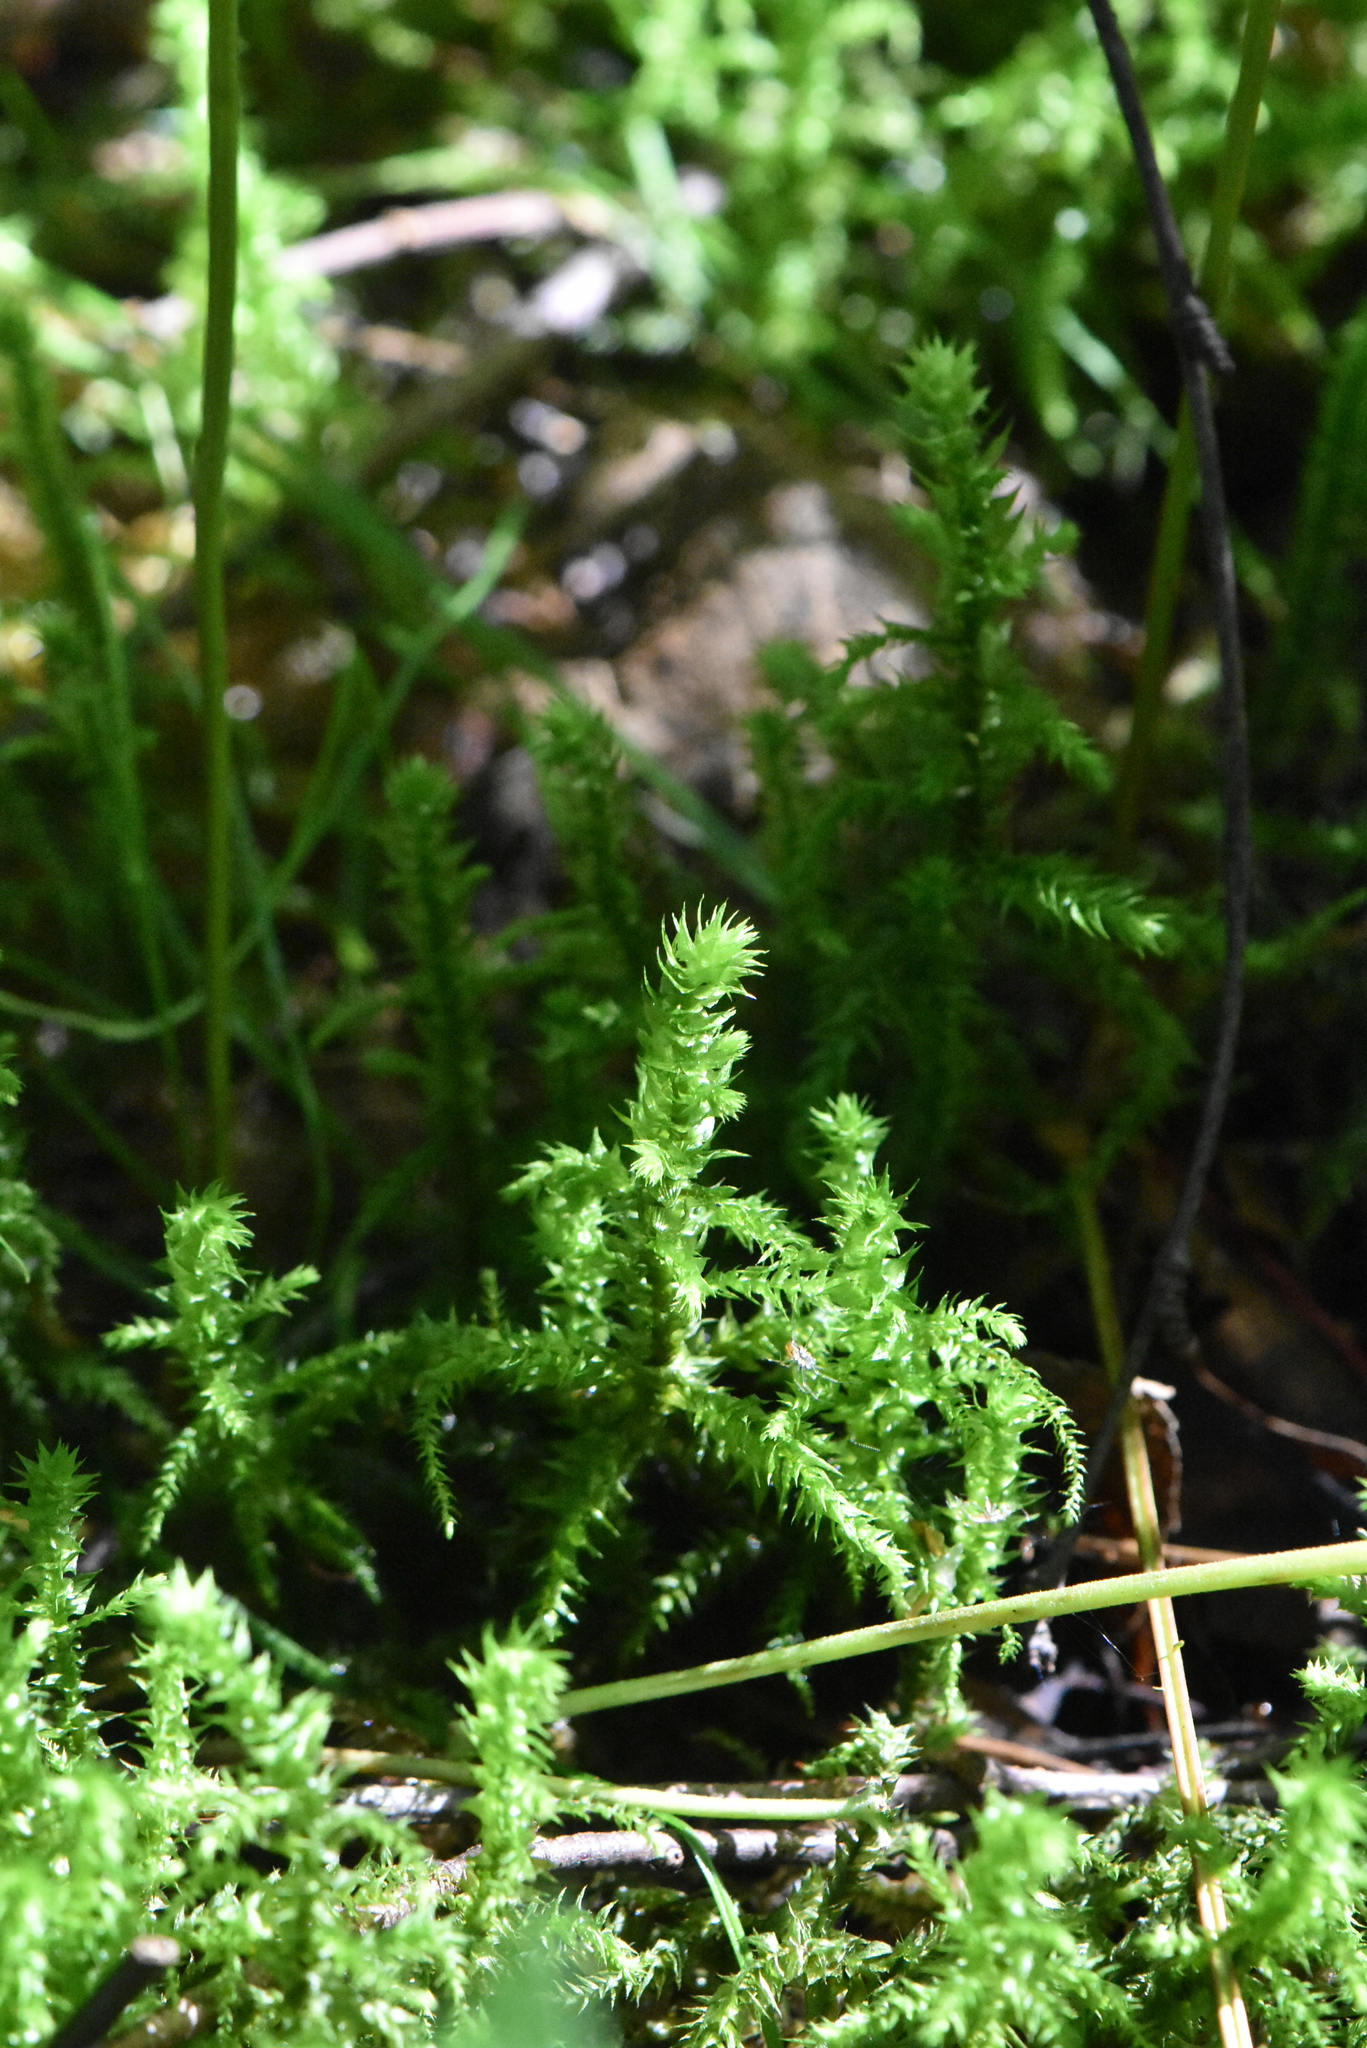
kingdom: Plantae
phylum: Bryophyta
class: Bryopsida
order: Hypnales
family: Hylocomiaceae
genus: Hylocomiadelphus
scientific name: Hylocomiadelphus triquetrus
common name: Rough goose neck moss
